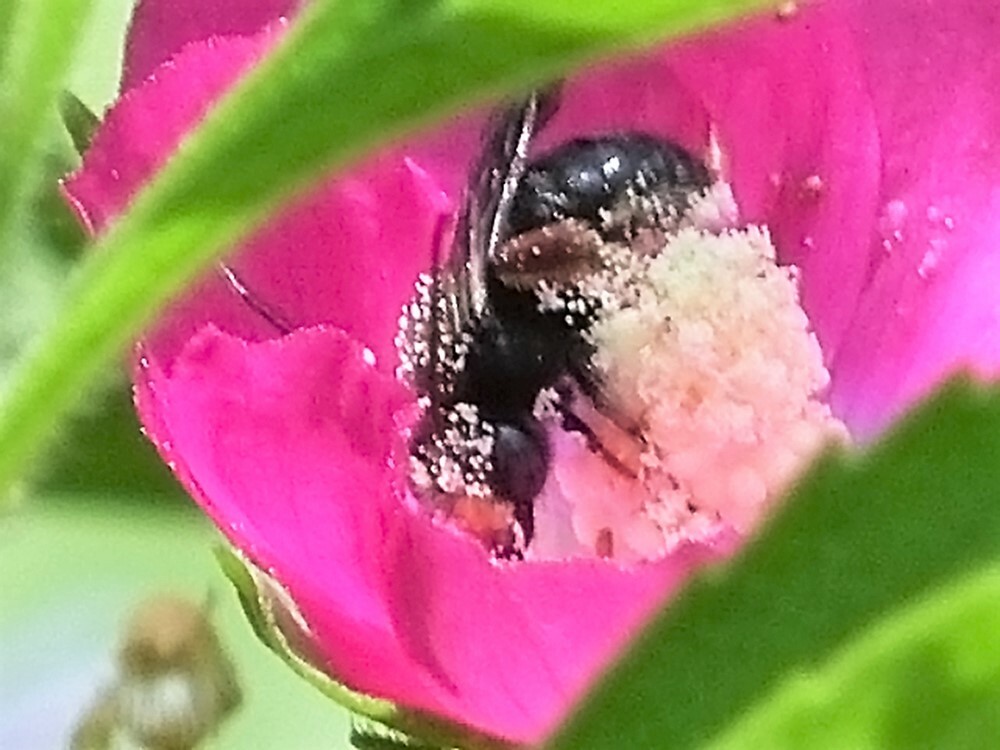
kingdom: Animalia
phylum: Arthropoda
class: Insecta
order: Hymenoptera
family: Apidae
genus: Melissodes
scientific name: Melissodes bimaculatus
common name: Two-spotted long-horned bee
